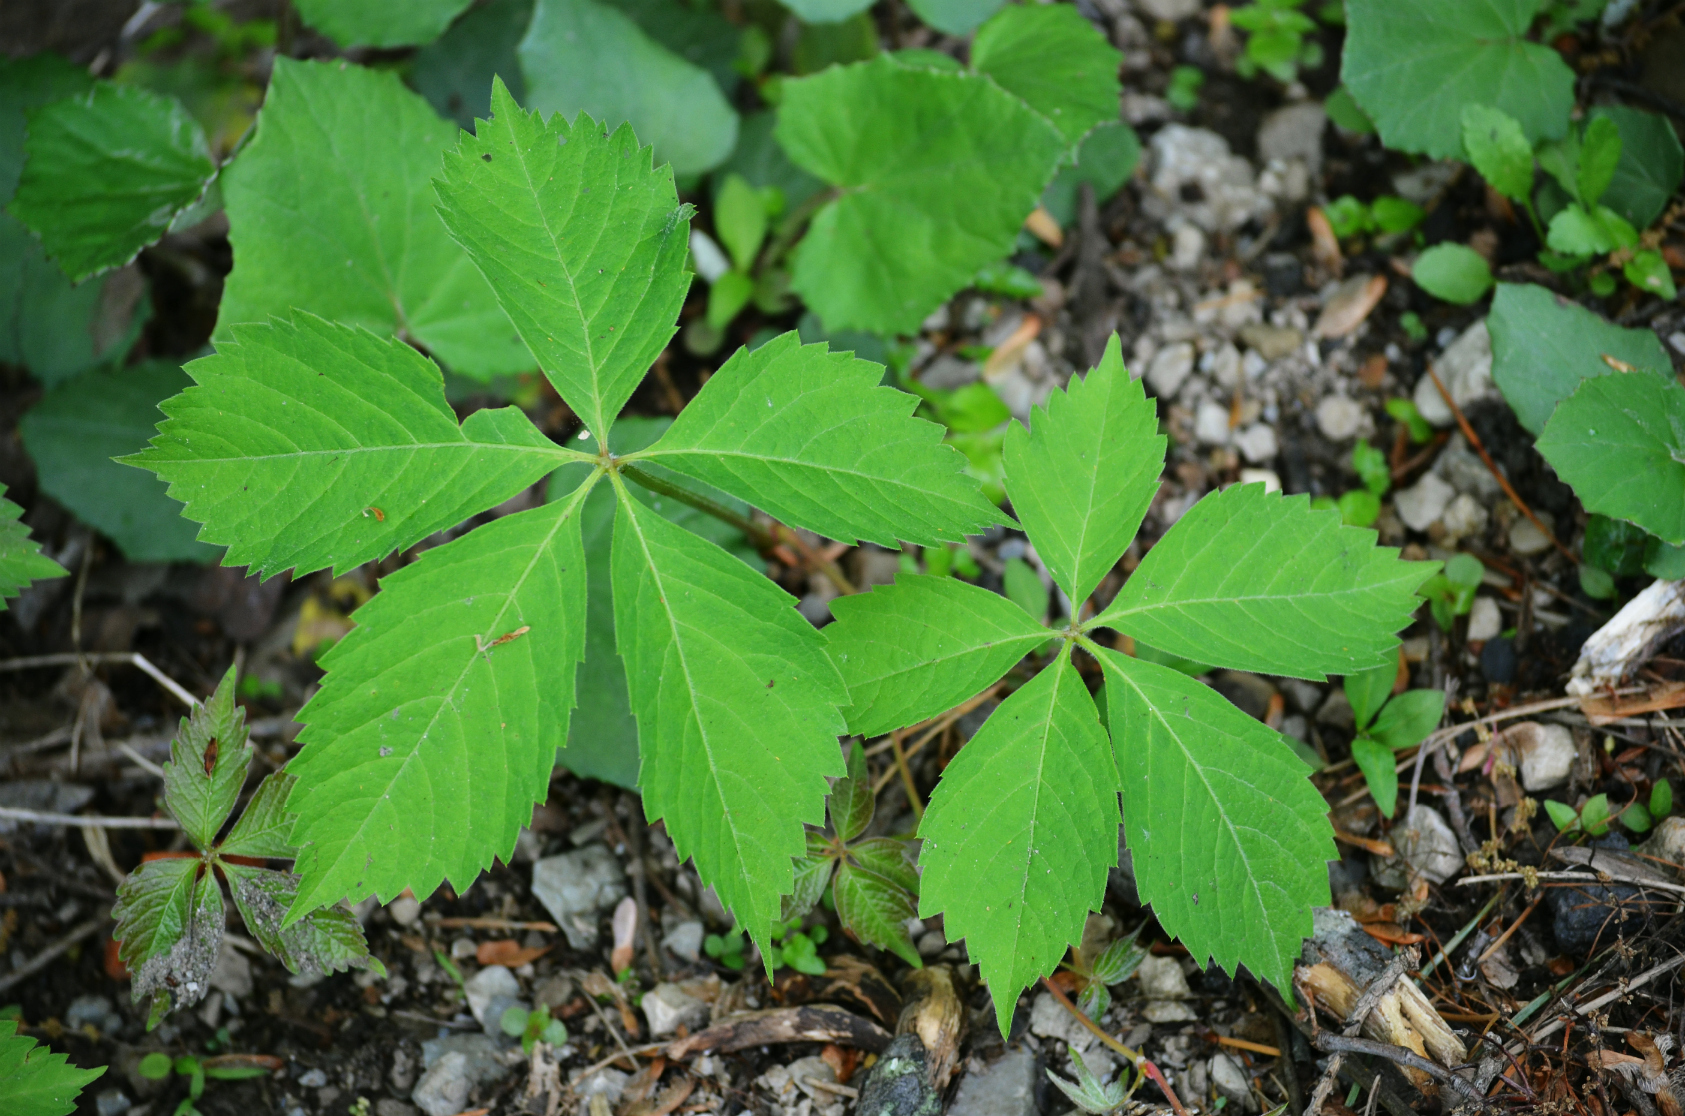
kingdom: Plantae
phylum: Tracheophyta
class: Magnoliopsida
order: Vitales
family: Vitaceae
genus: Parthenocissus
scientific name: Parthenocissus quinquefolia
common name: Virginia-creeper
